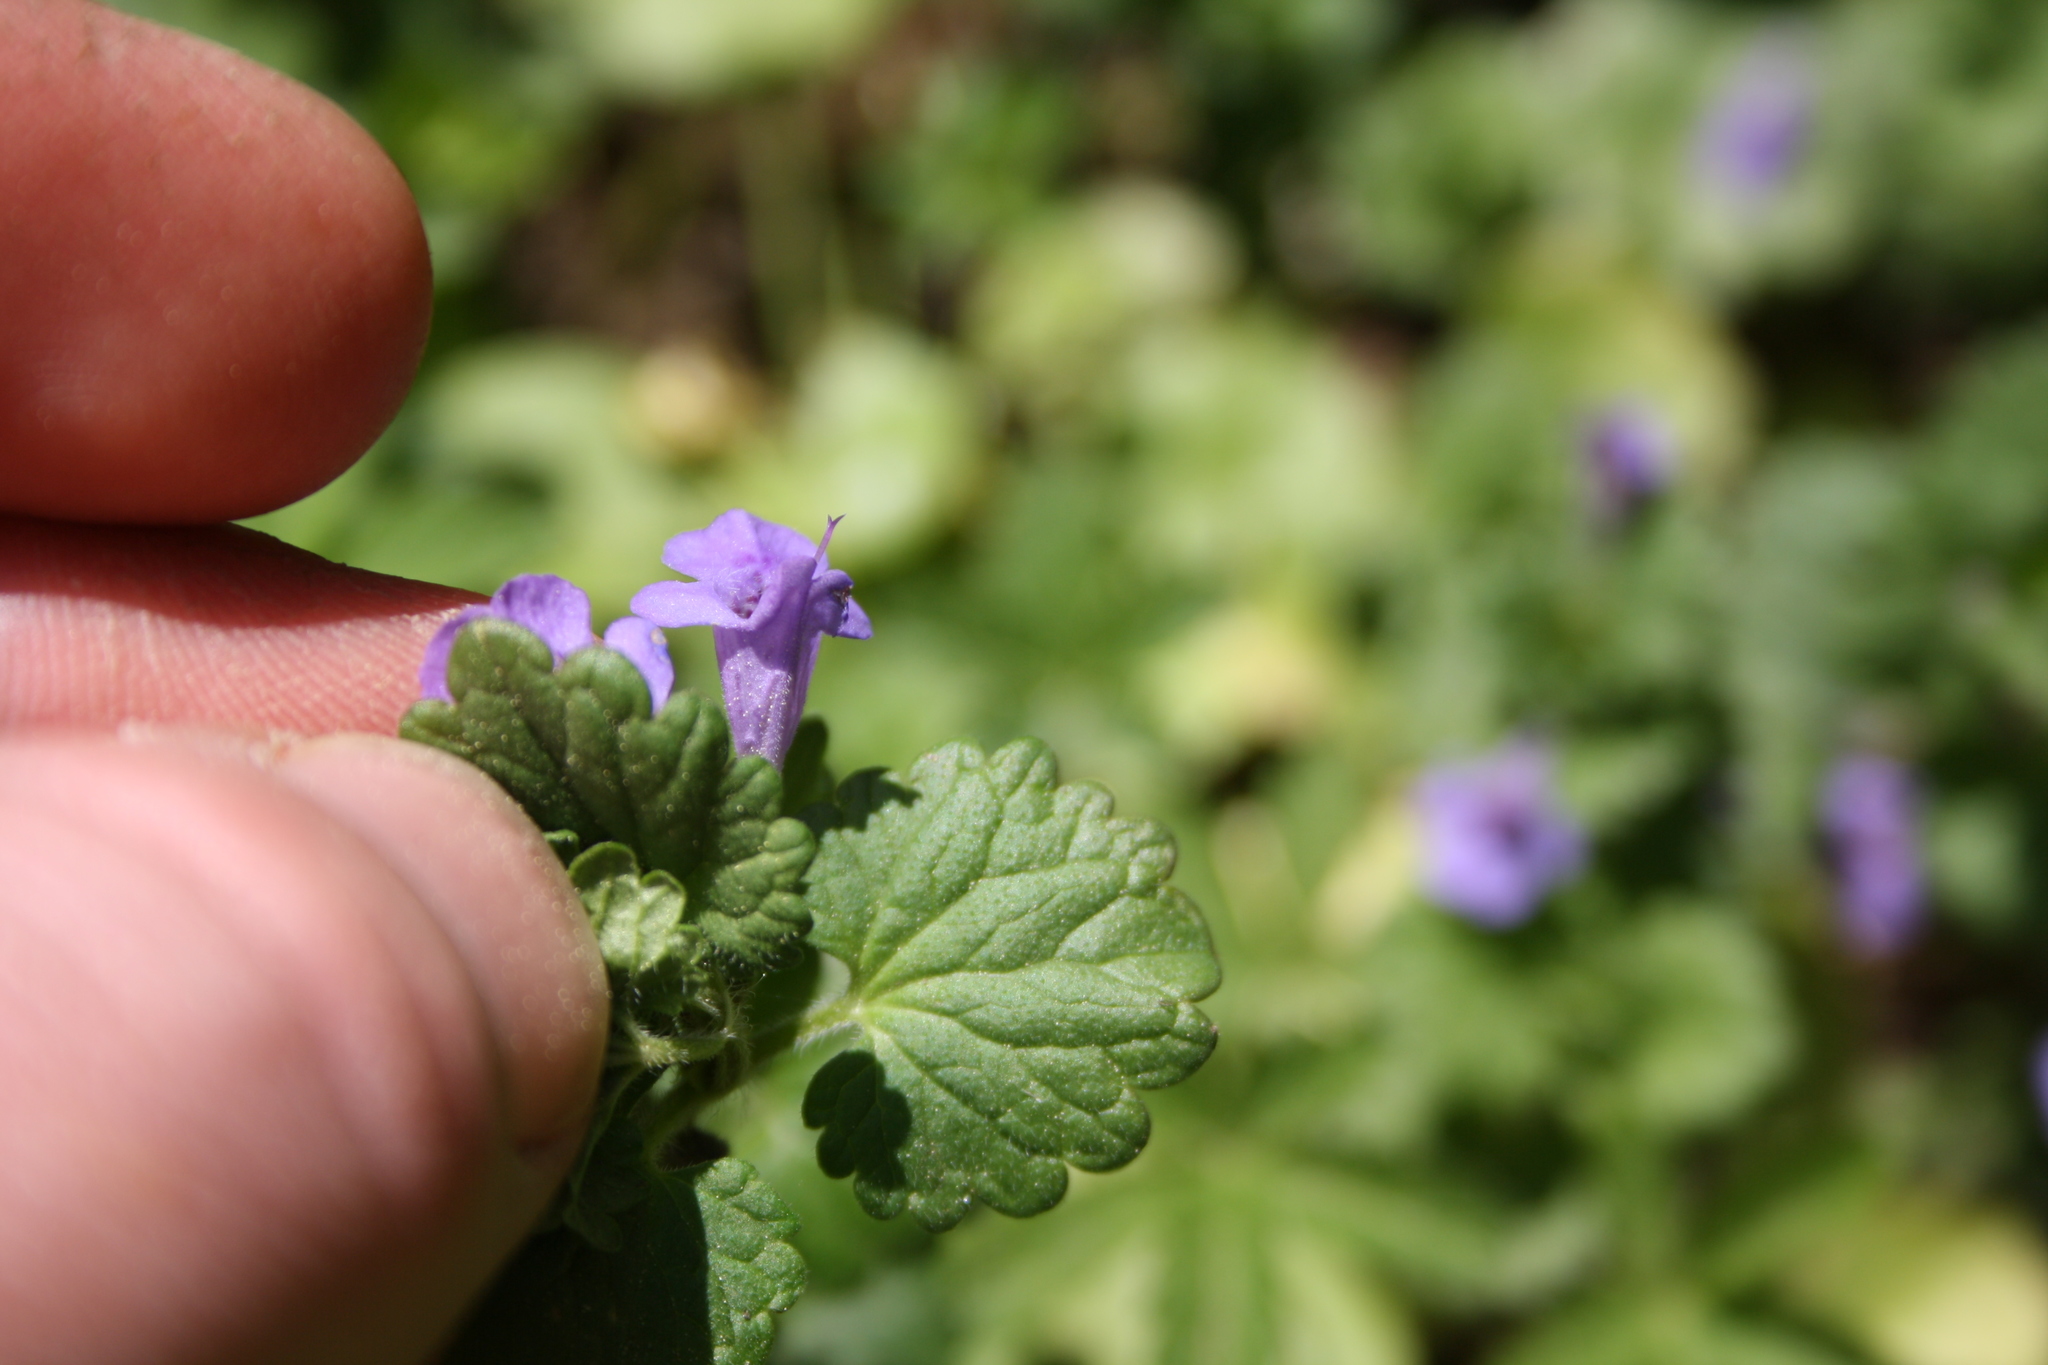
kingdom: Plantae
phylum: Tracheophyta
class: Magnoliopsida
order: Lamiales
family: Lamiaceae
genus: Glechoma
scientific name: Glechoma hederacea
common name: Ground ivy
